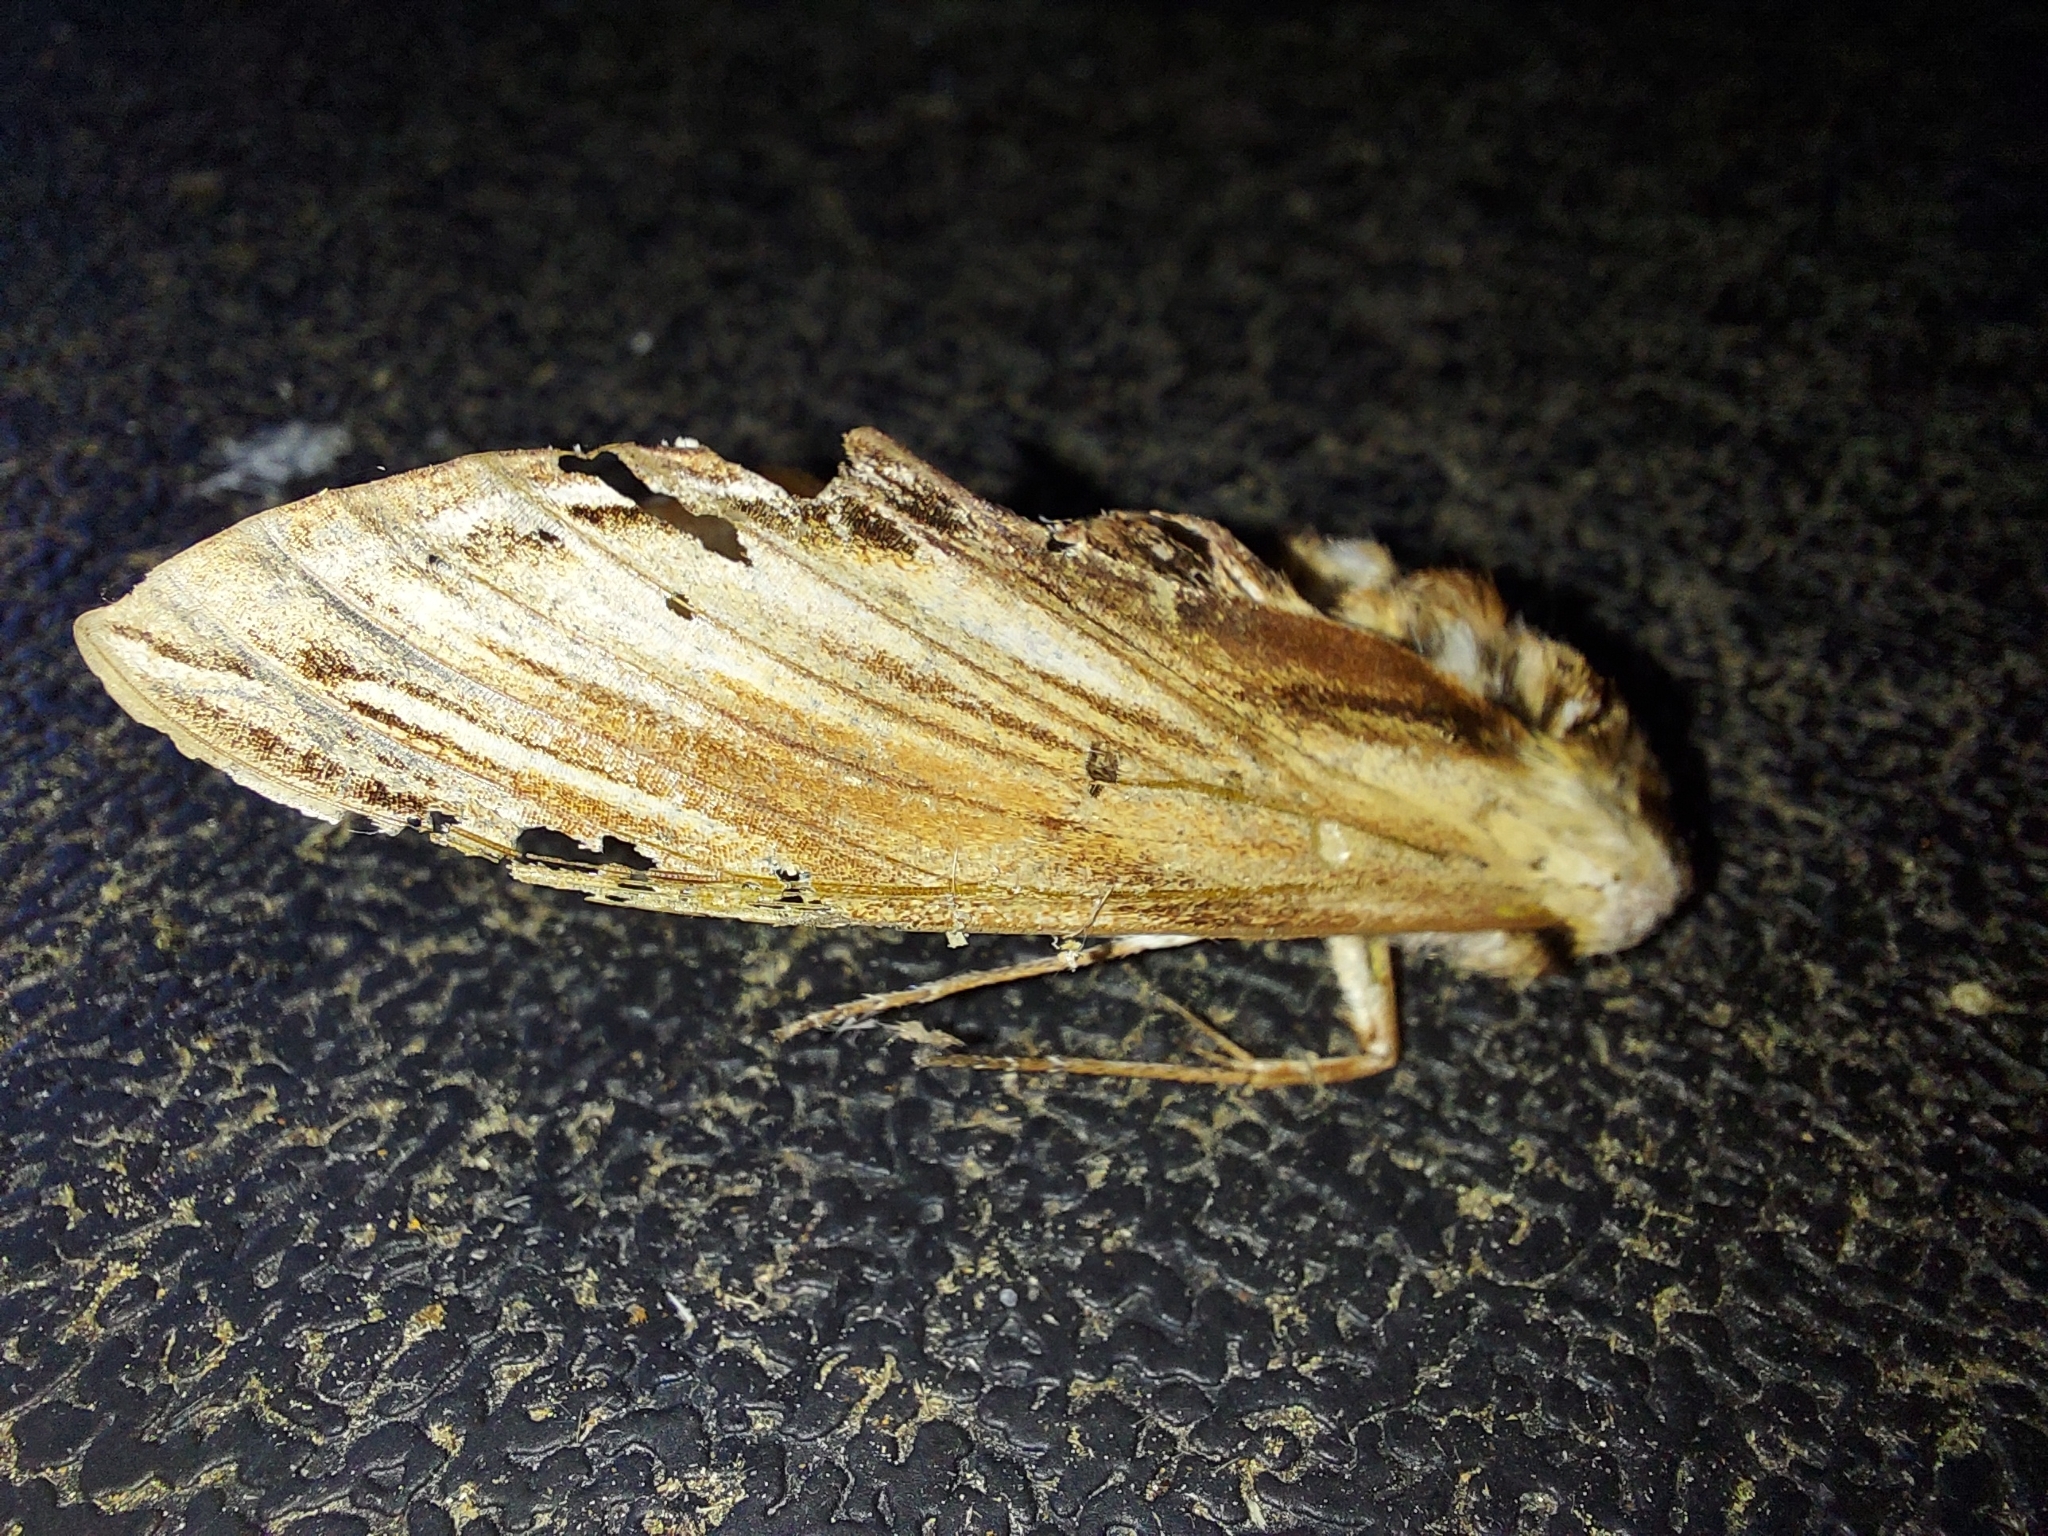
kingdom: Animalia
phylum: Arthropoda
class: Insecta
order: Lepidoptera
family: Sphingidae
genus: Sphinx
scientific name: Sphinx kalmiae
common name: Laurel sphinx
